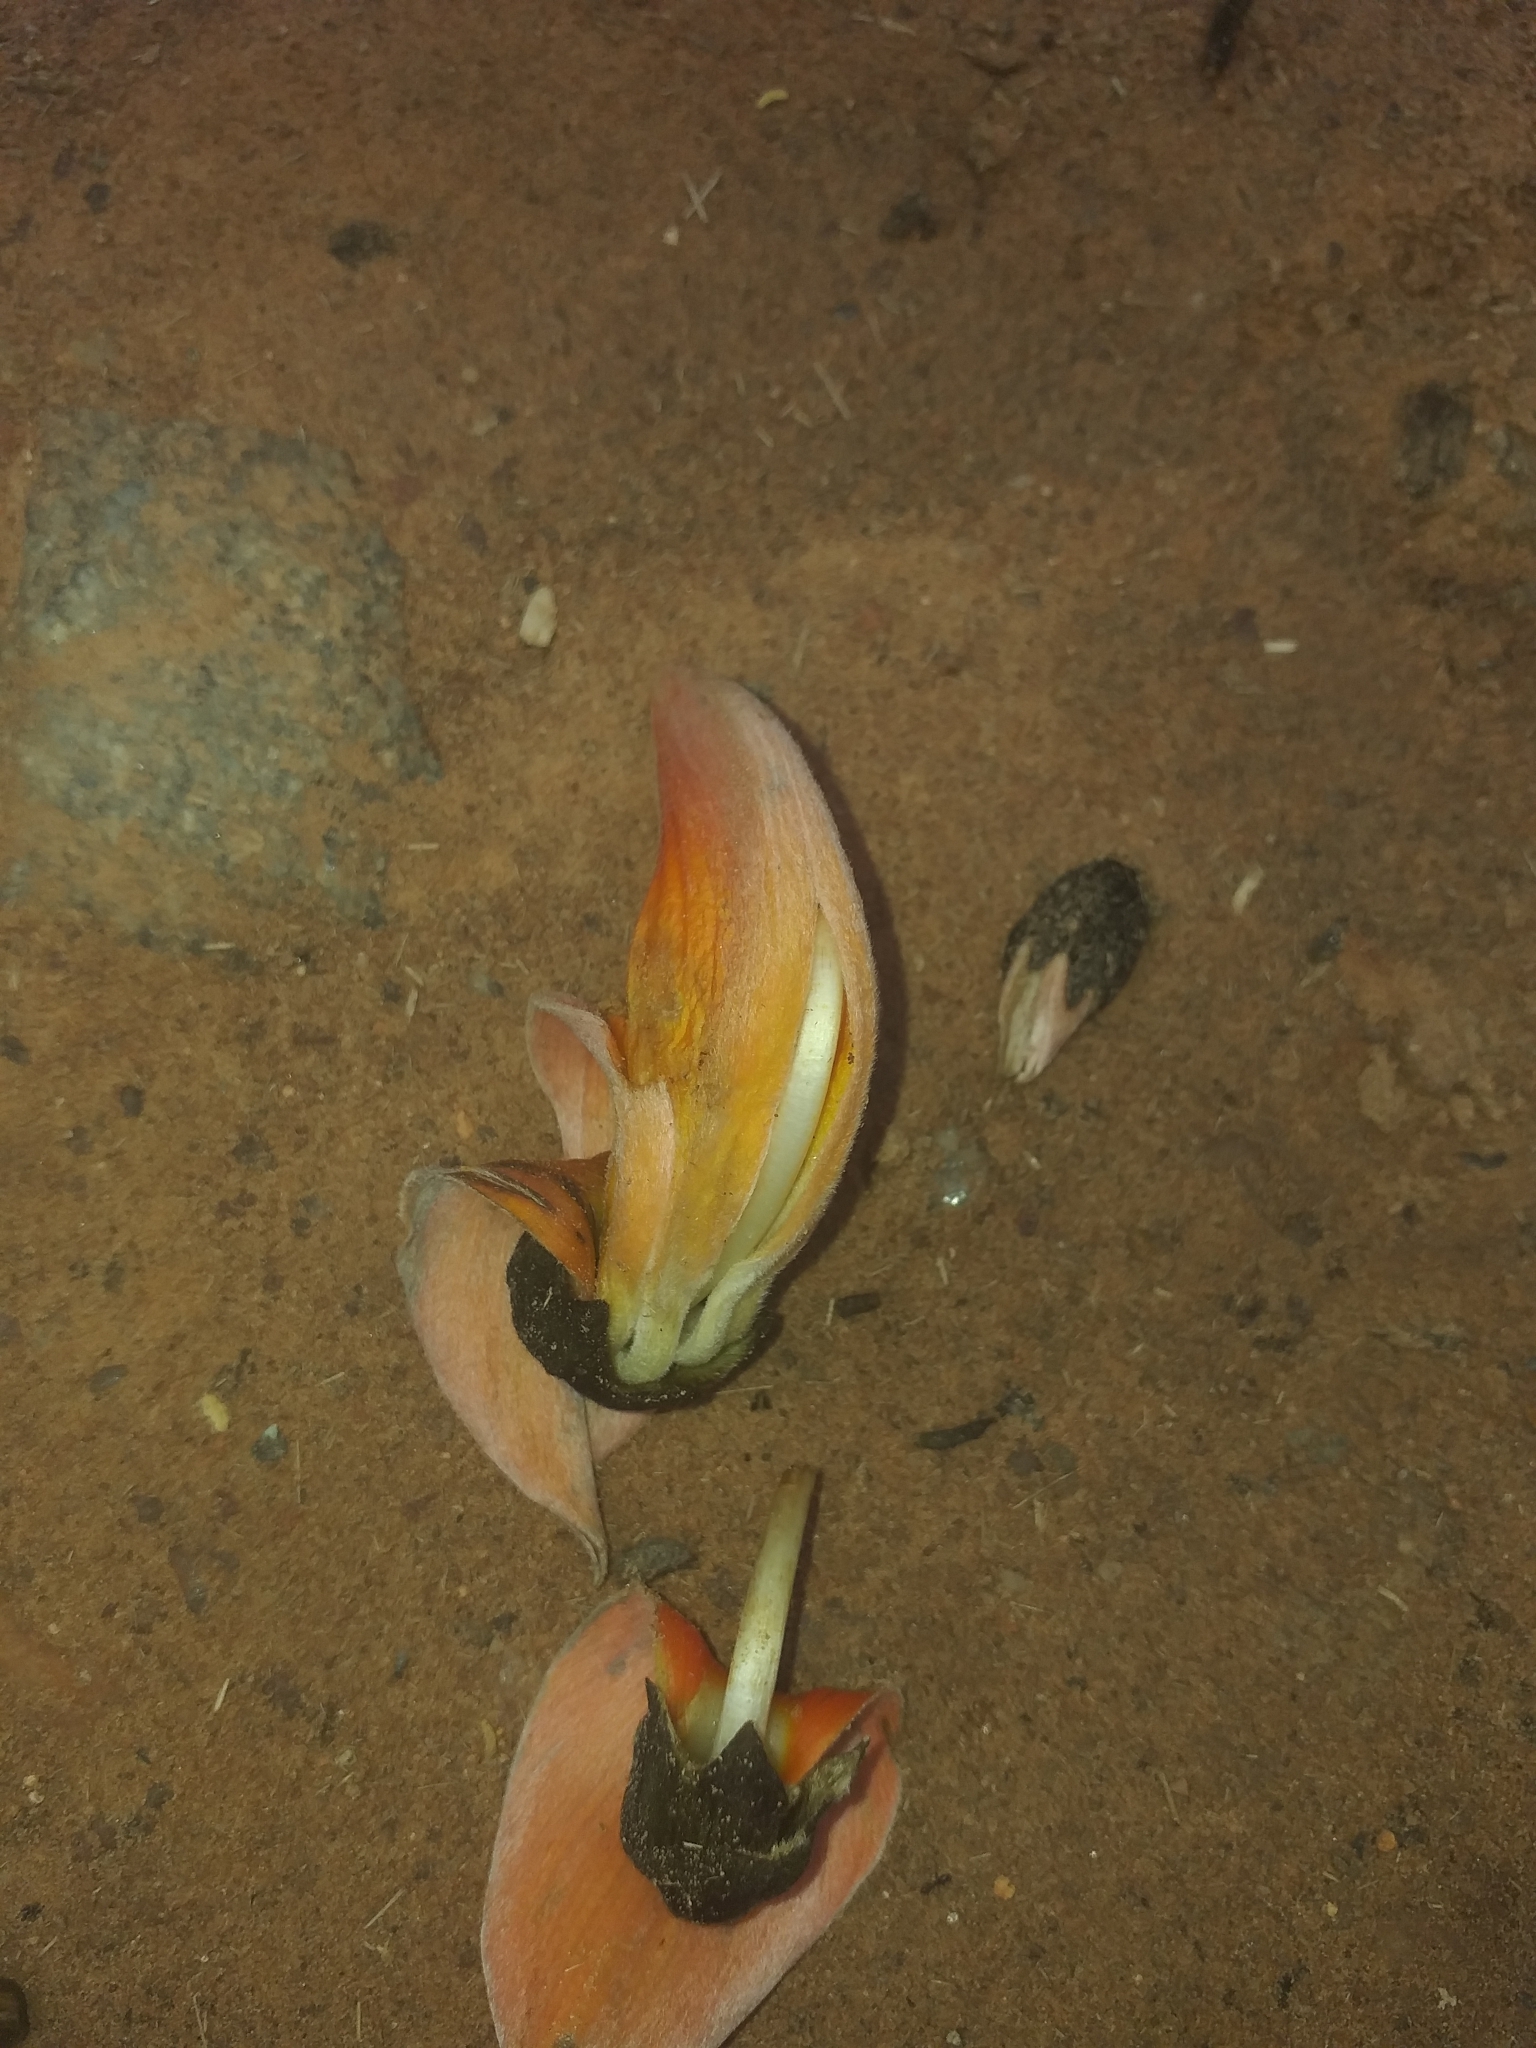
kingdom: Plantae
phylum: Tracheophyta
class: Magnoliopsida
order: Fabales
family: Fabaceae
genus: Butea
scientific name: Butea monosperma
